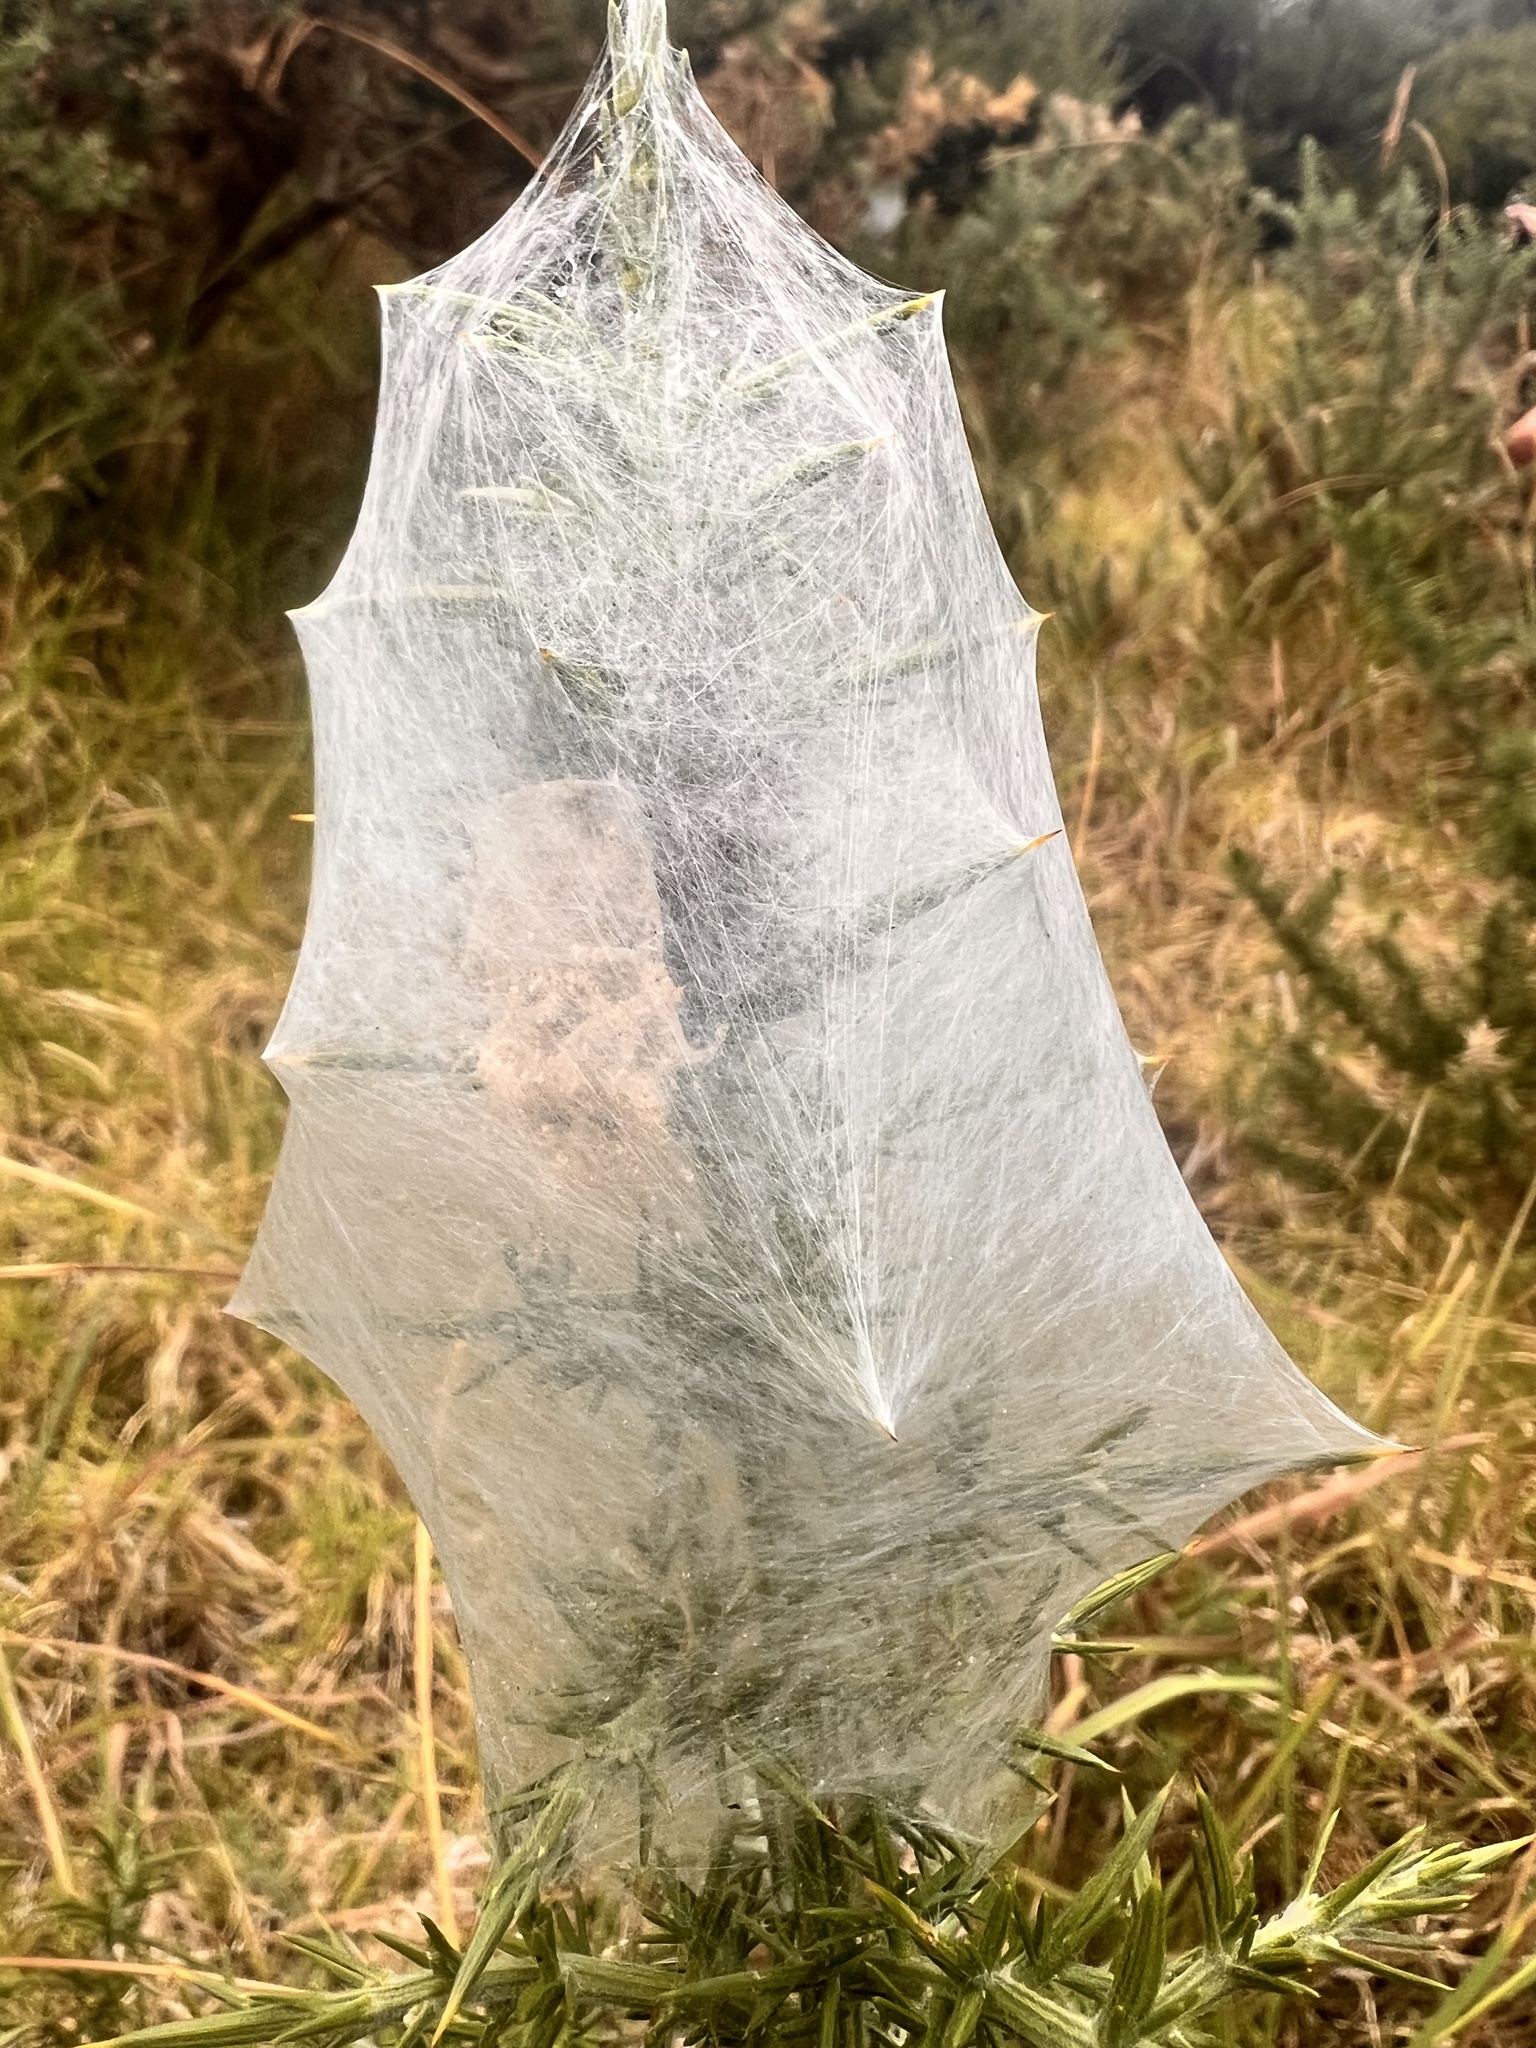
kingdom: Animalia
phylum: Arthropoda
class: Arachnida
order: Araneae
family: Pisauridae
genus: Dolomedes
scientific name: Dolomedes minor
